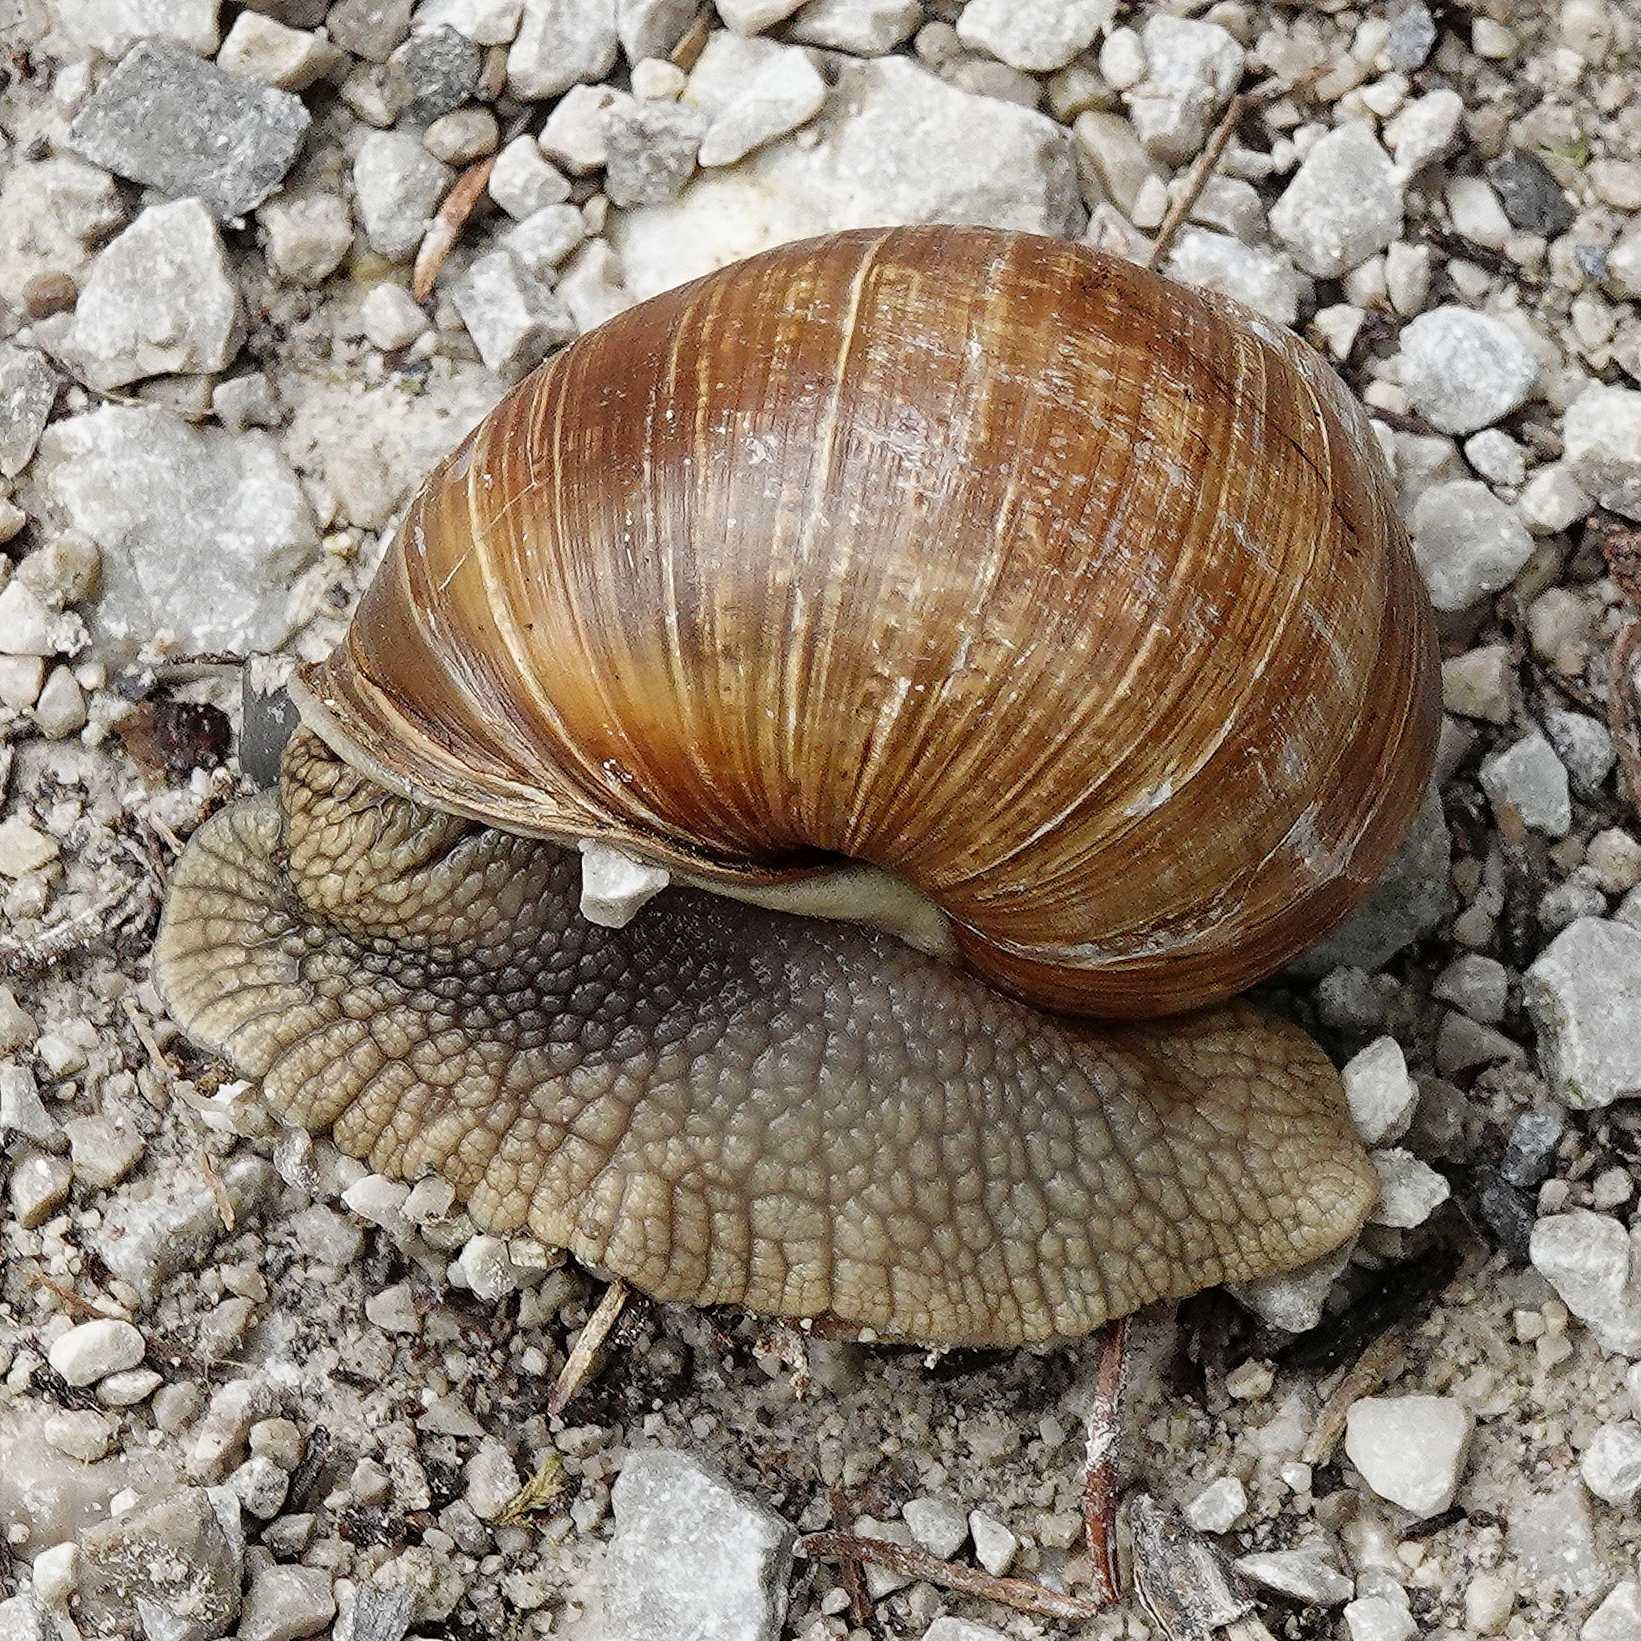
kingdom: Animalia
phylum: Mollusca
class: Gastropoda
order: Stylommatophora
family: Helicidae
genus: Helix
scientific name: Helix pomatia
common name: Roman snail
